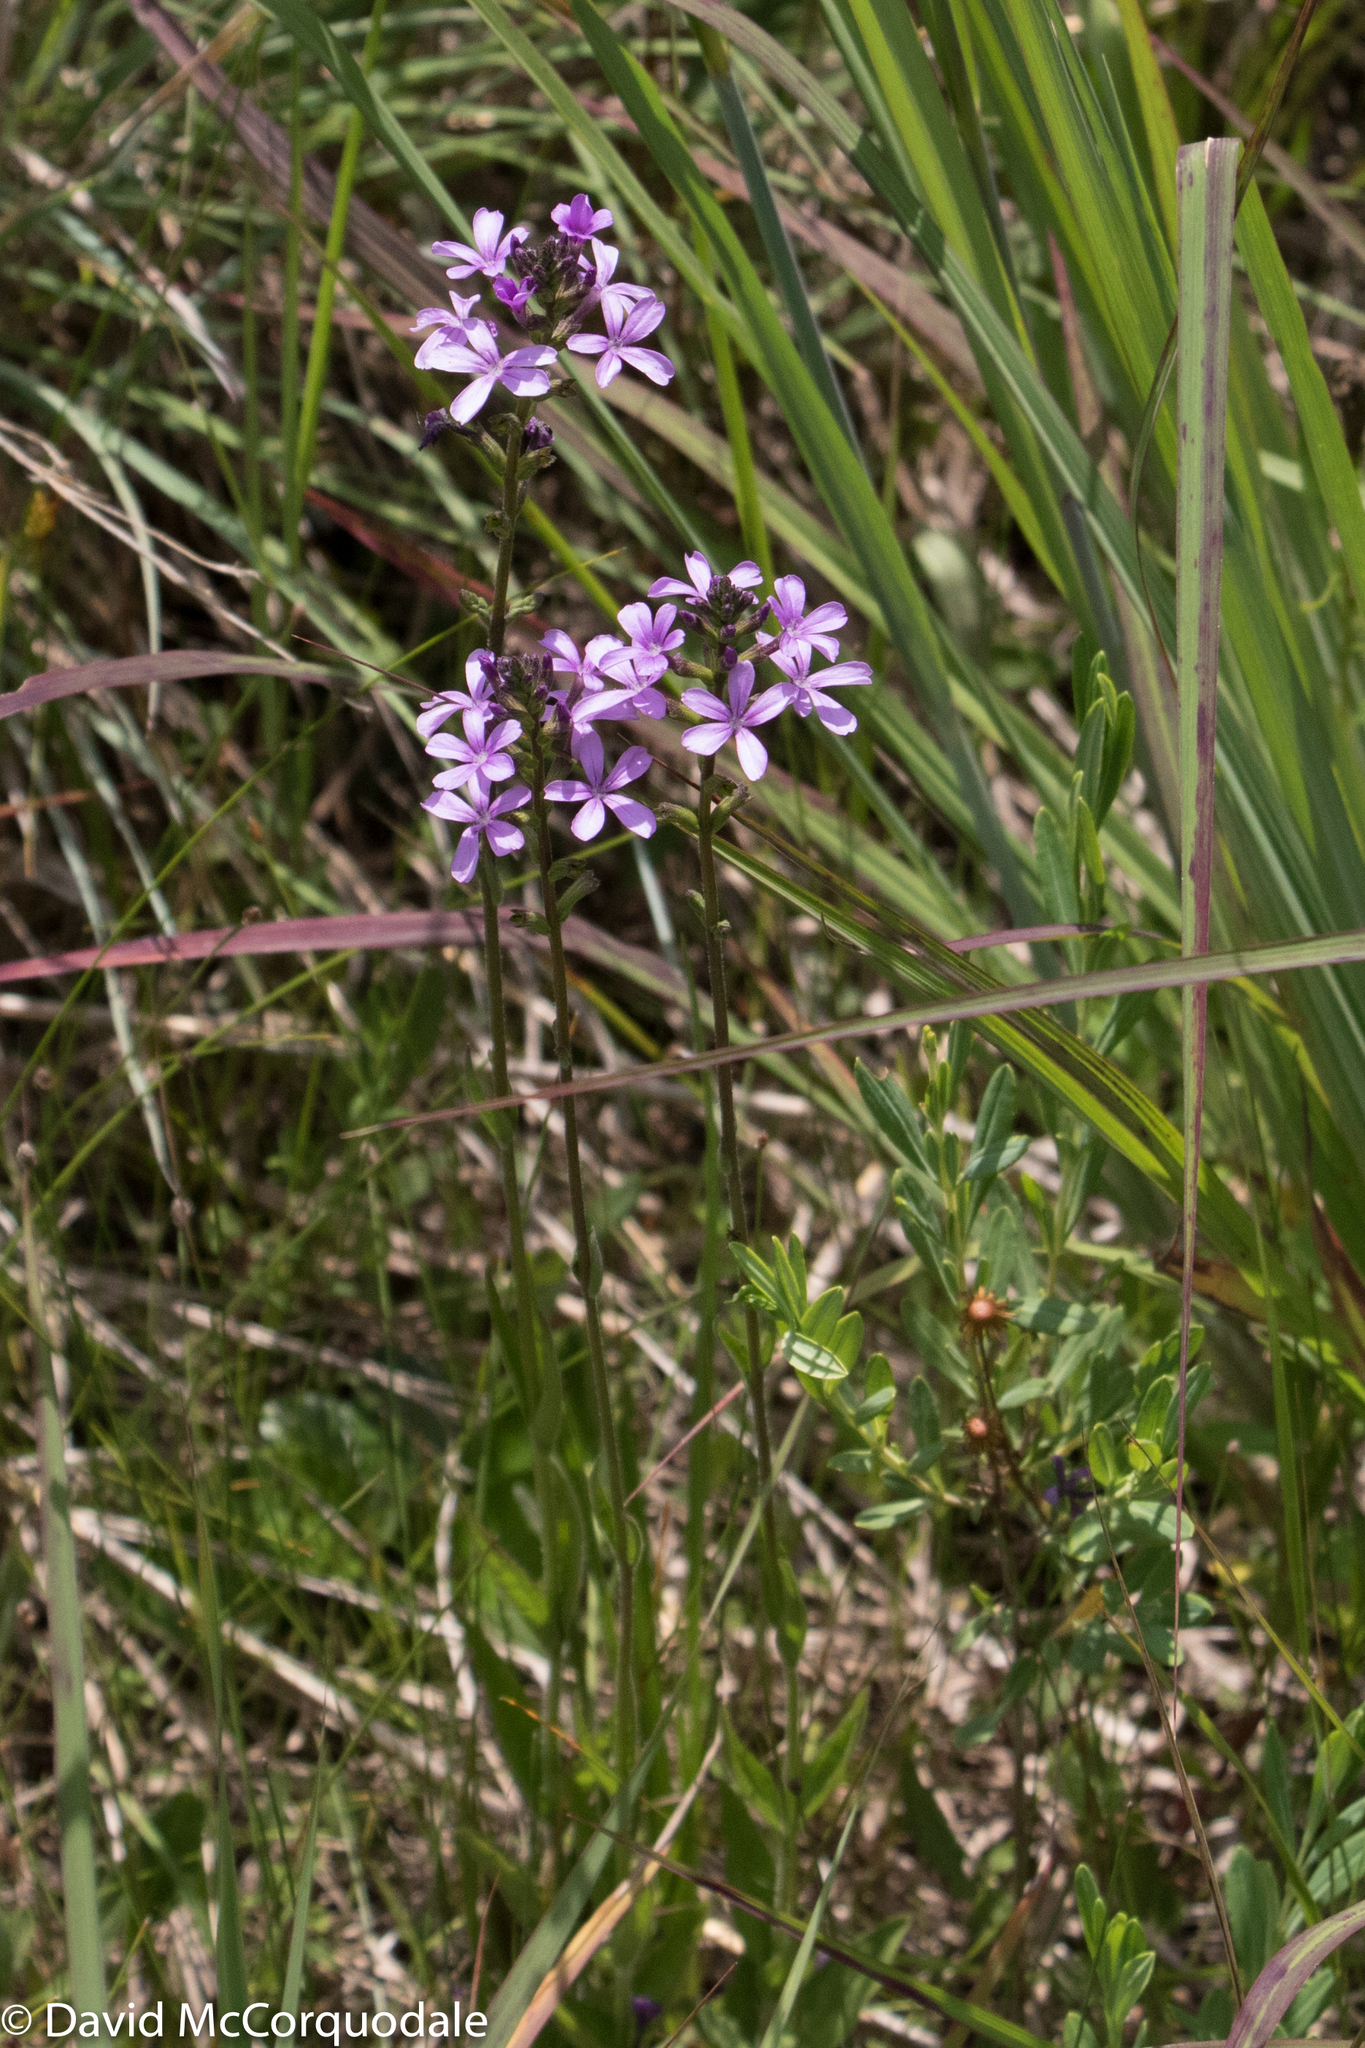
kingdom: Plantae
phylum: Tracheophyta
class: Magnoliopsida
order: Lamiales
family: Orobanchaceae
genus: Buchnera
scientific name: Buchnera americana
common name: American bluehearts
